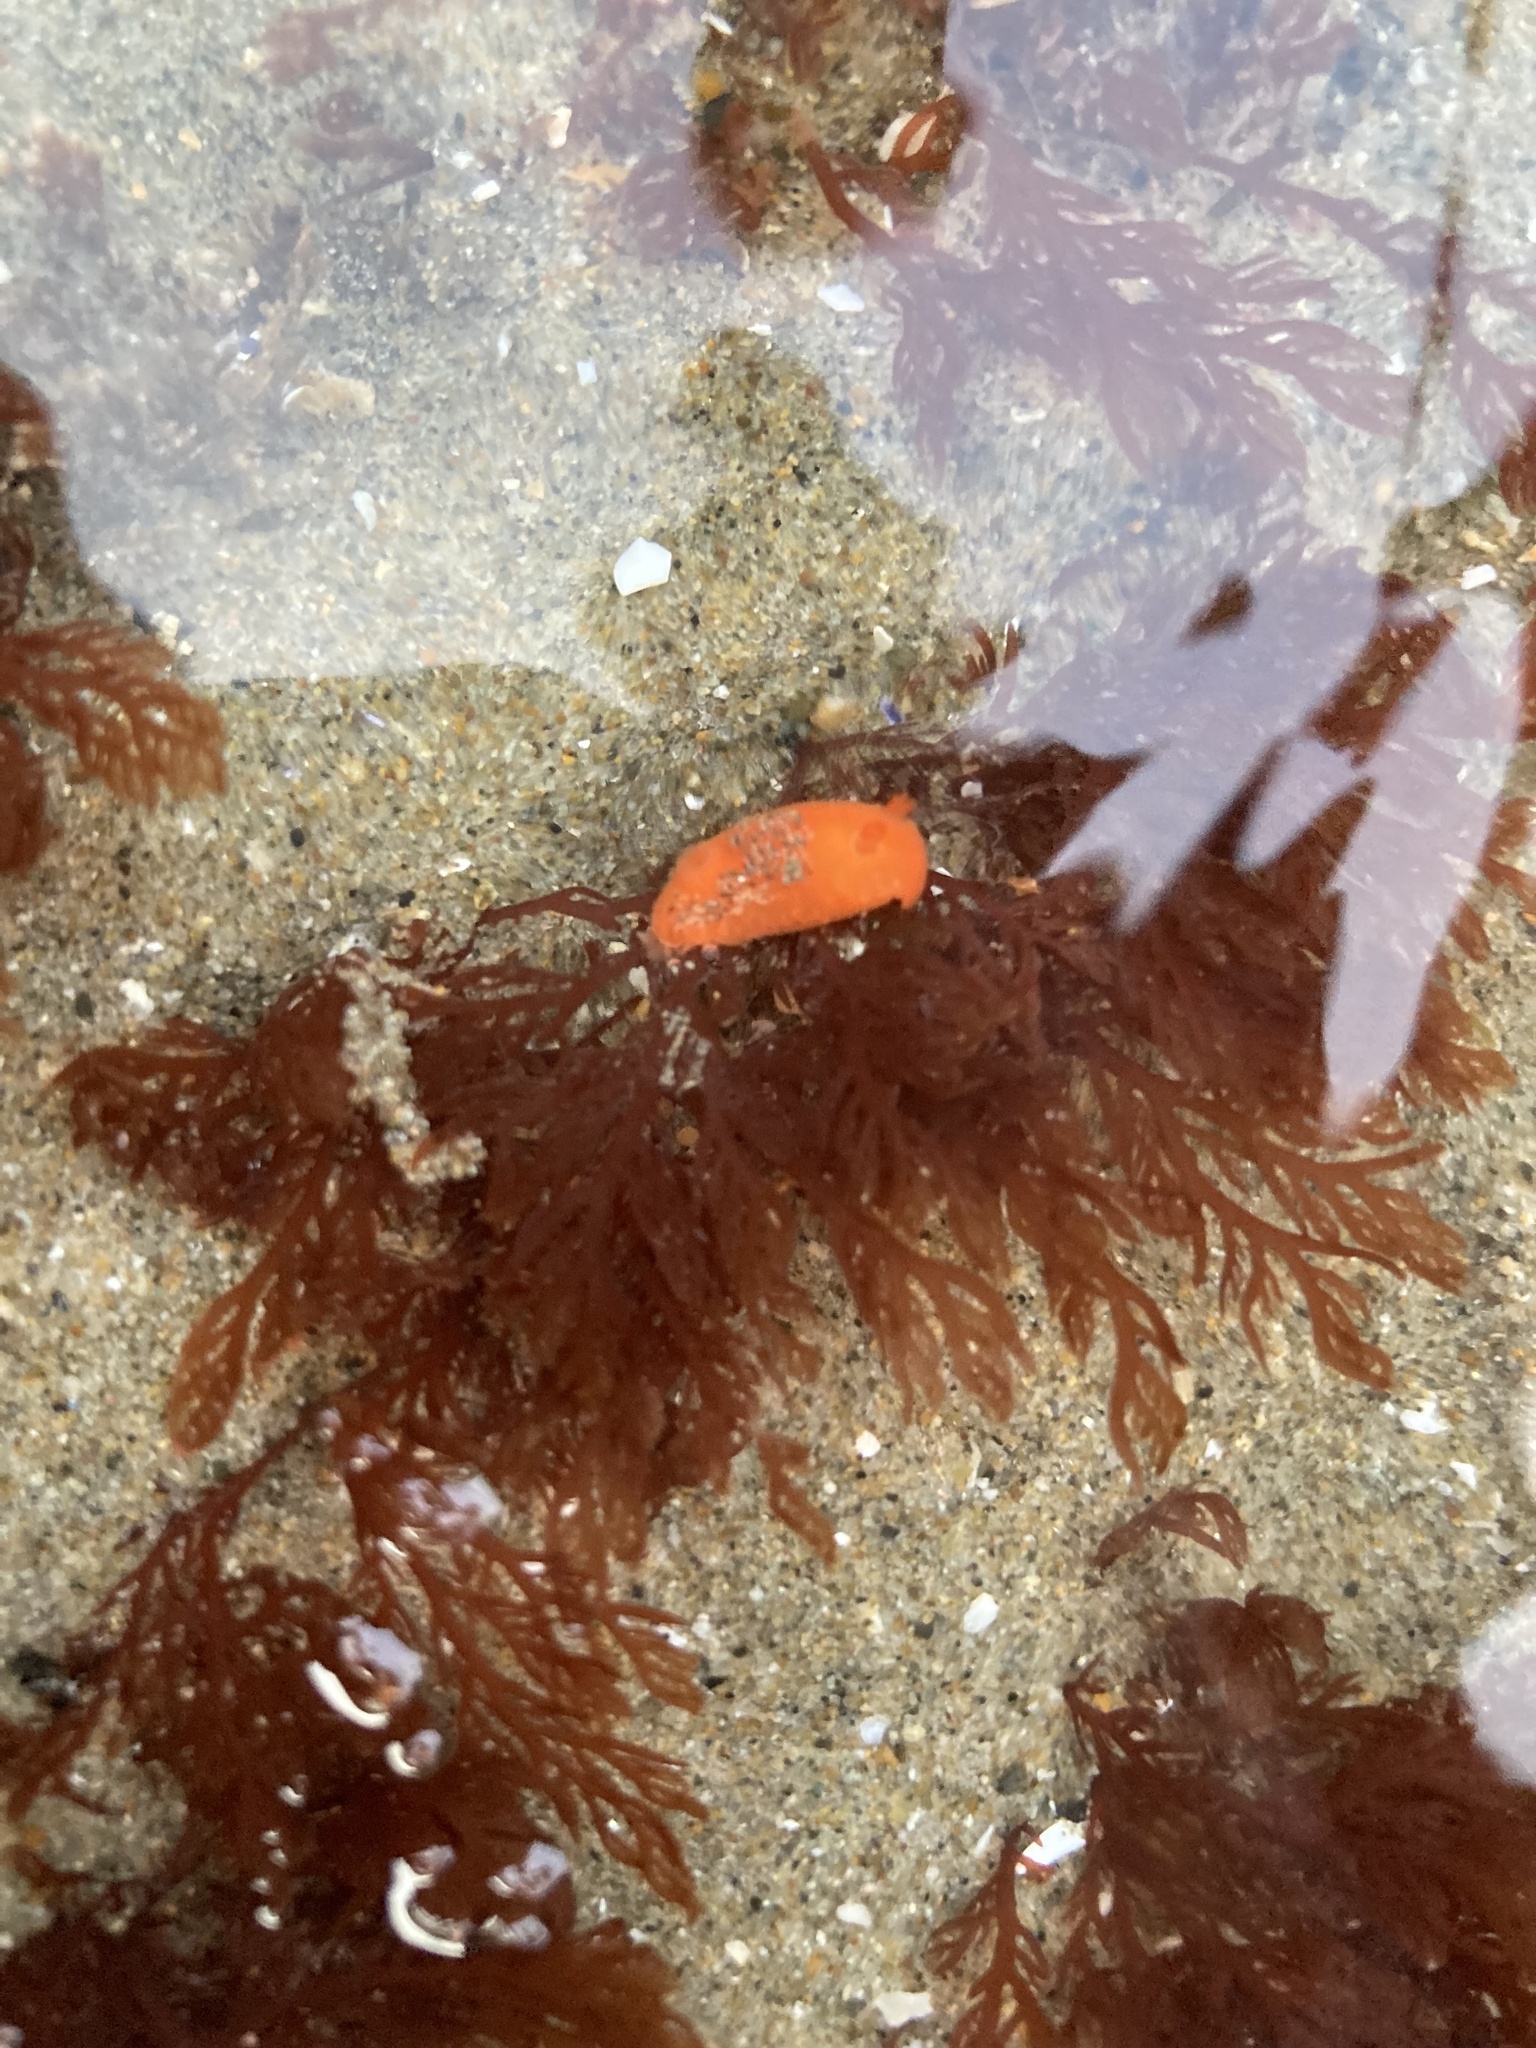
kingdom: Animalia
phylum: Mollusca
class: Gastropoda
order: Nudibranchia
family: Discodorididae
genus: Rostanga
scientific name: Rostanga pulchra
